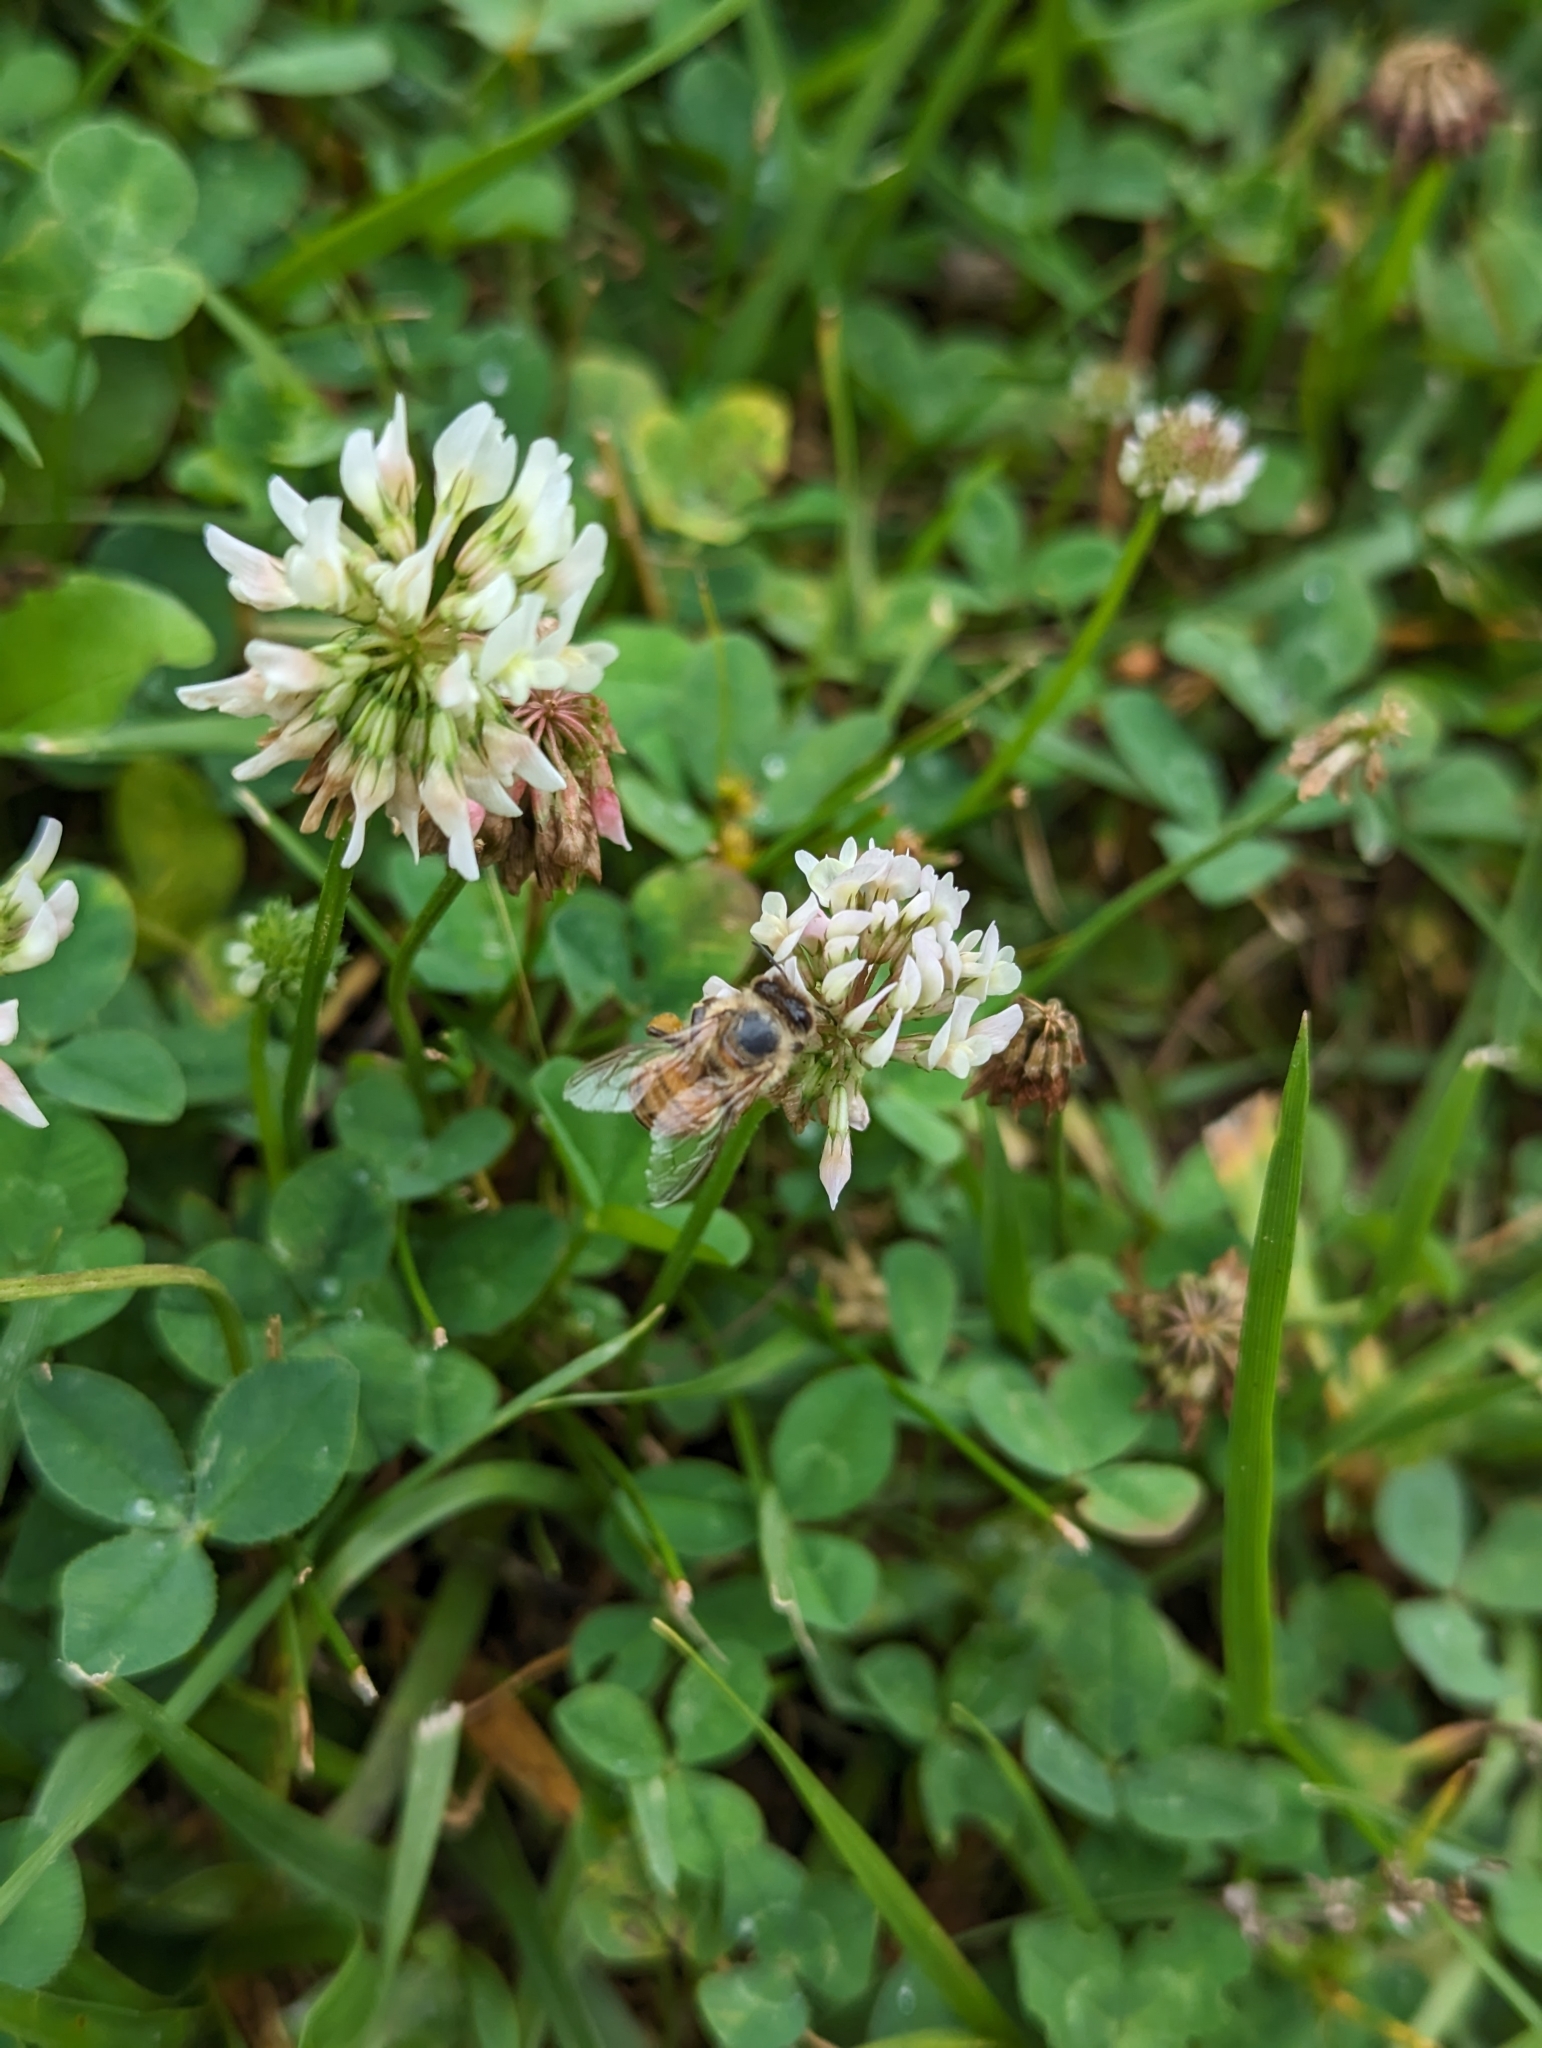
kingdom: Animalia
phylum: Arthropoda
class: Insecta
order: Hymenoptera
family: Apidae
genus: Apis
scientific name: Apis mellifera
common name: Honey bee
